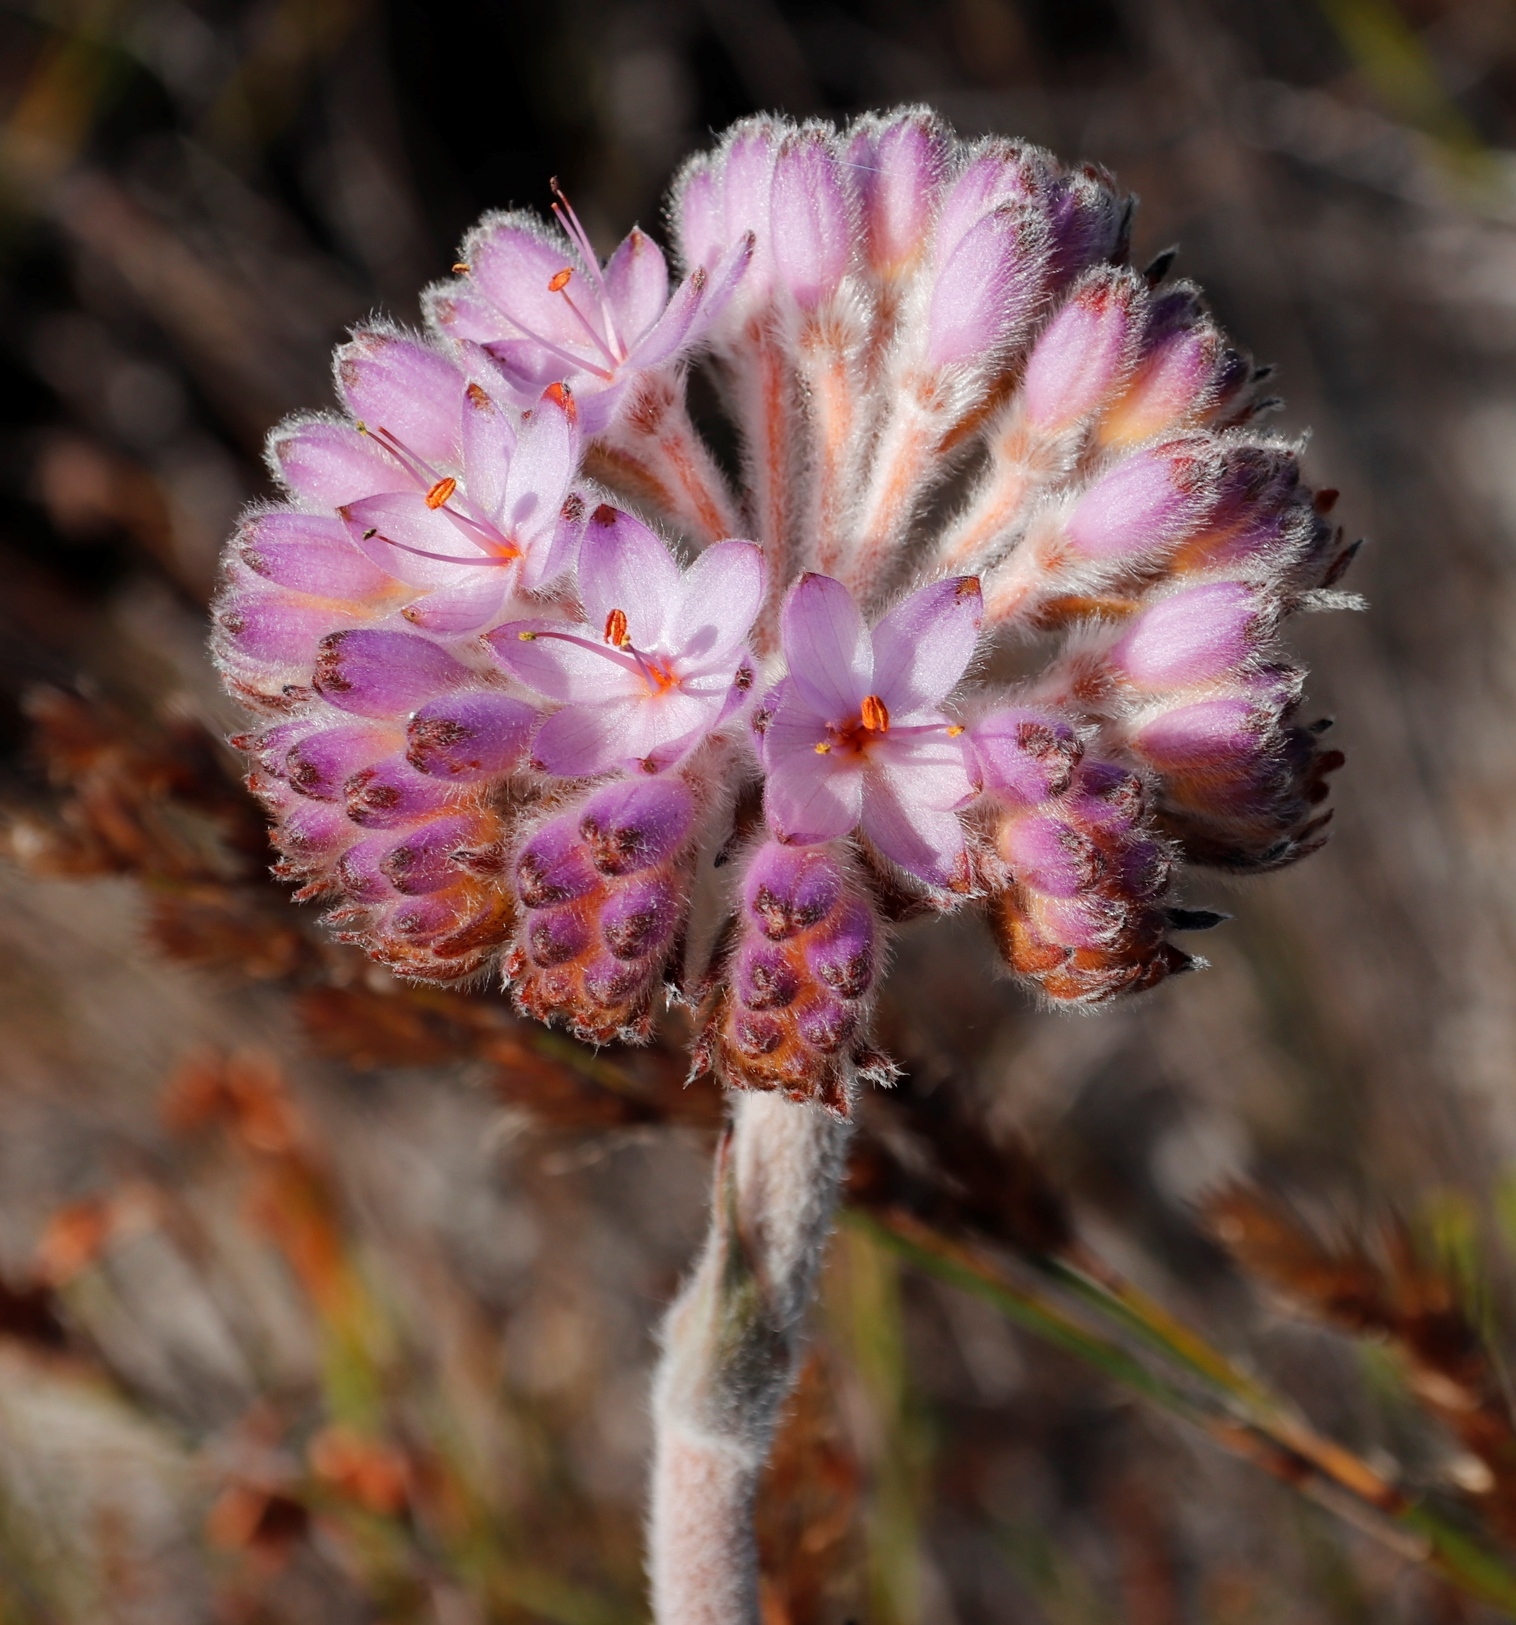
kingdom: Plantae
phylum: Tracheophyta
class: Liliopsida
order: Commelinales
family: Haemodoraceae
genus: Dilatris
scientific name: Dilatris corymbosa
